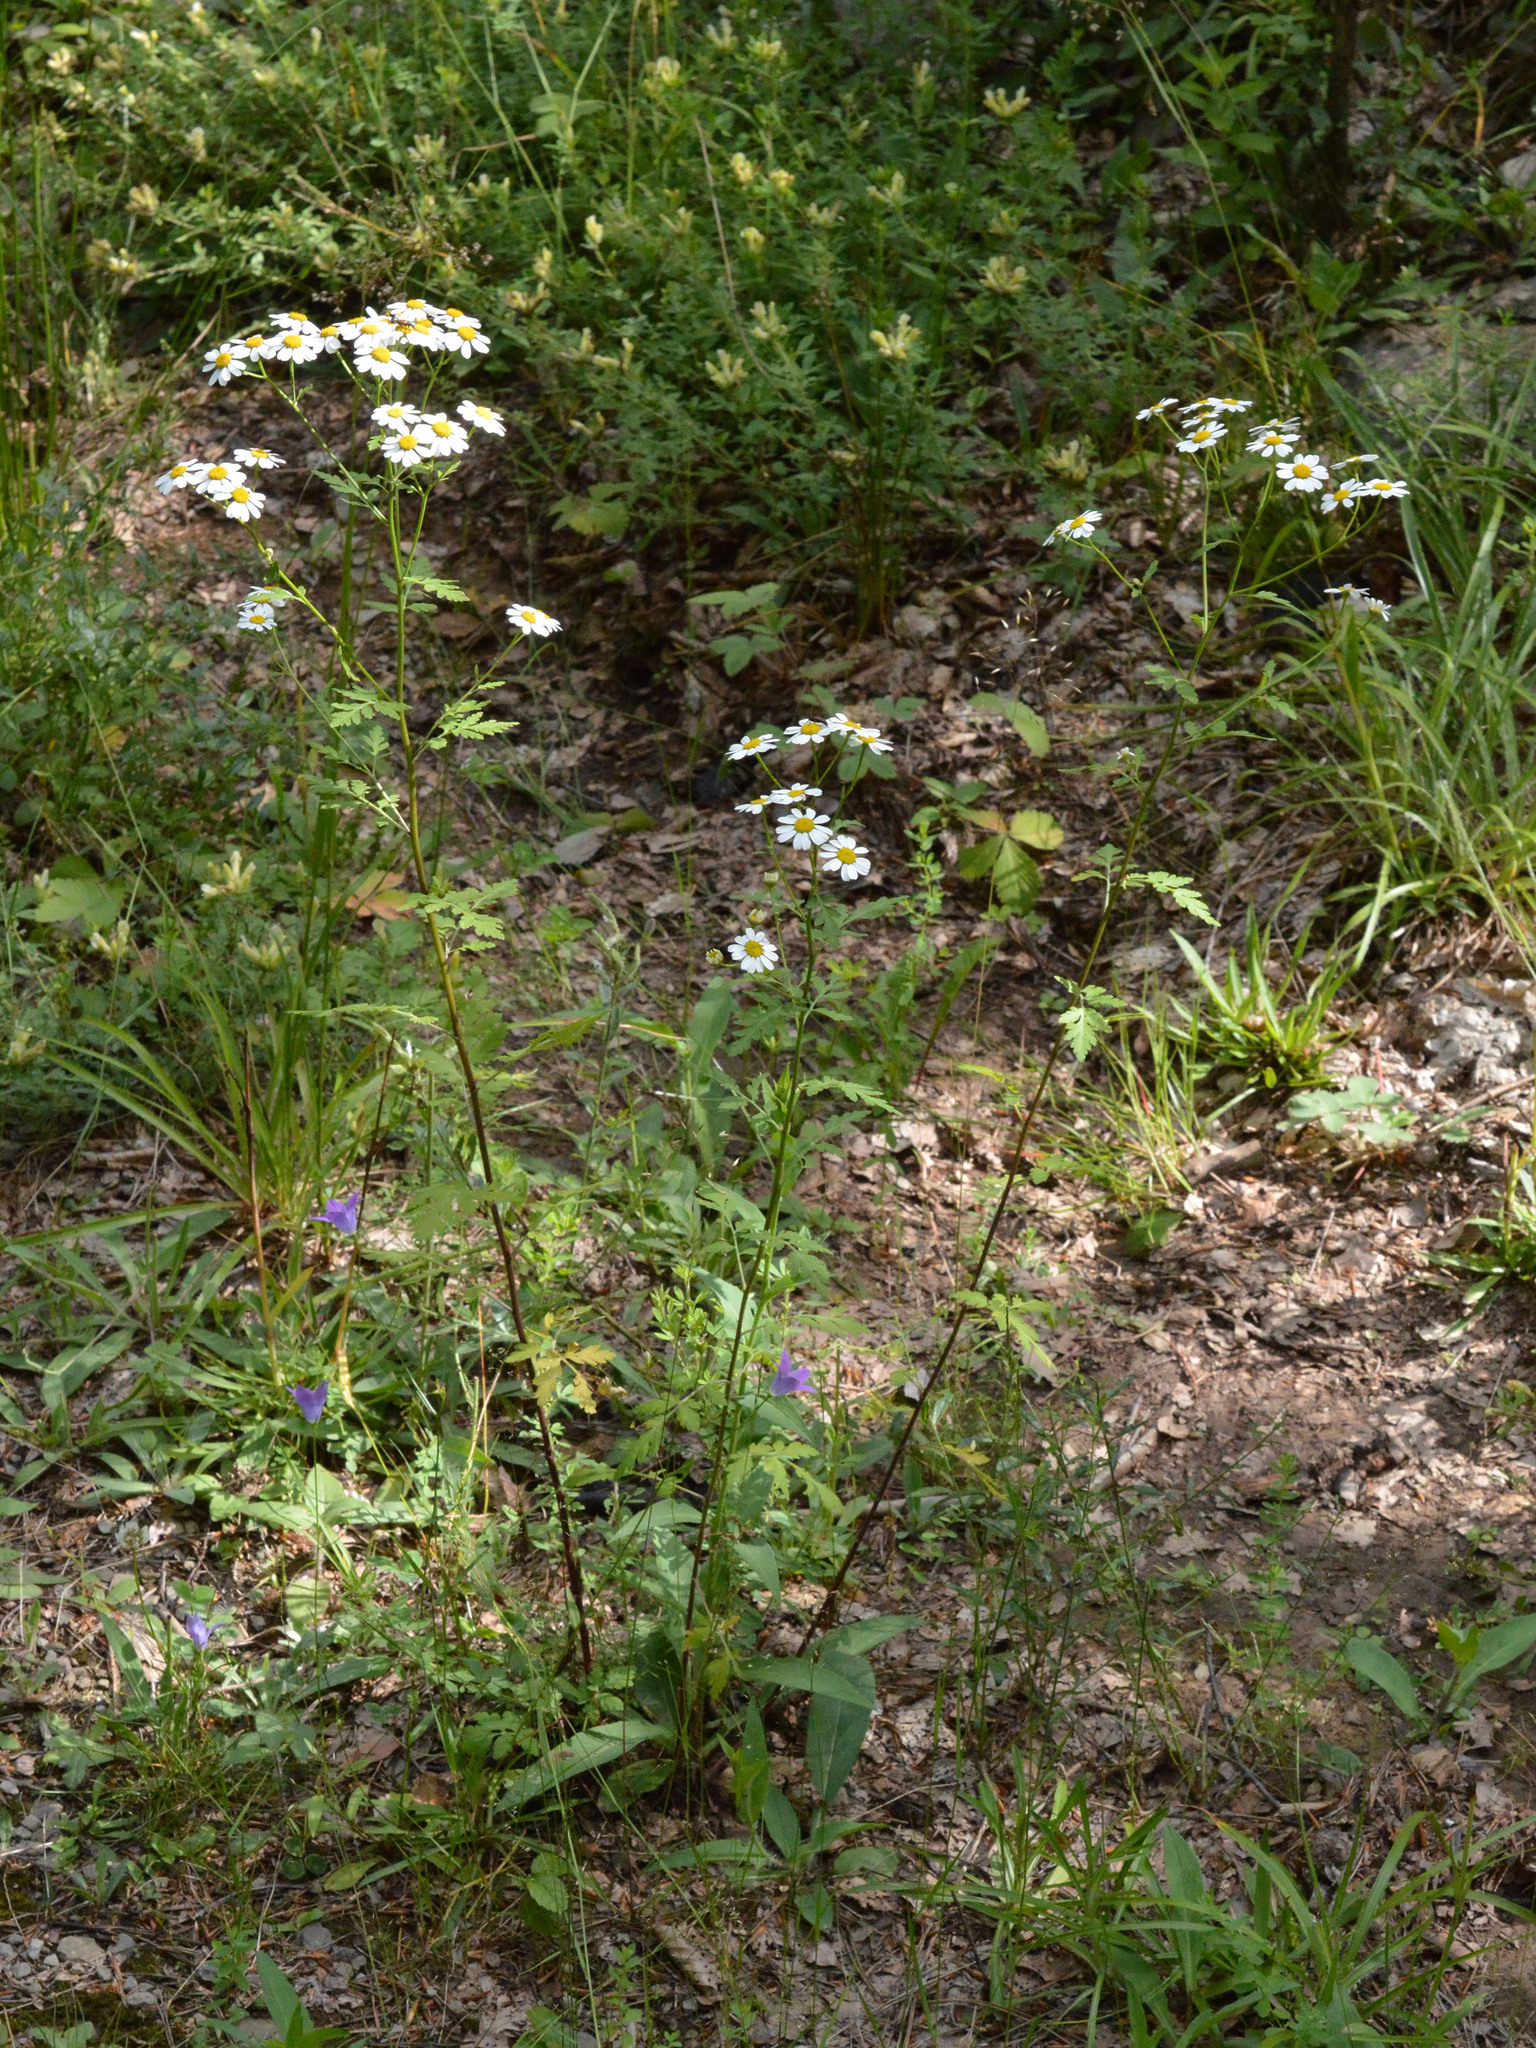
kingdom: Plantae
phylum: Tracheophyta
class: Magnoliopsida
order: Asterales
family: Asteraceae
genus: Tanacetum
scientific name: Tanacetum parthenium
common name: Feverfew
